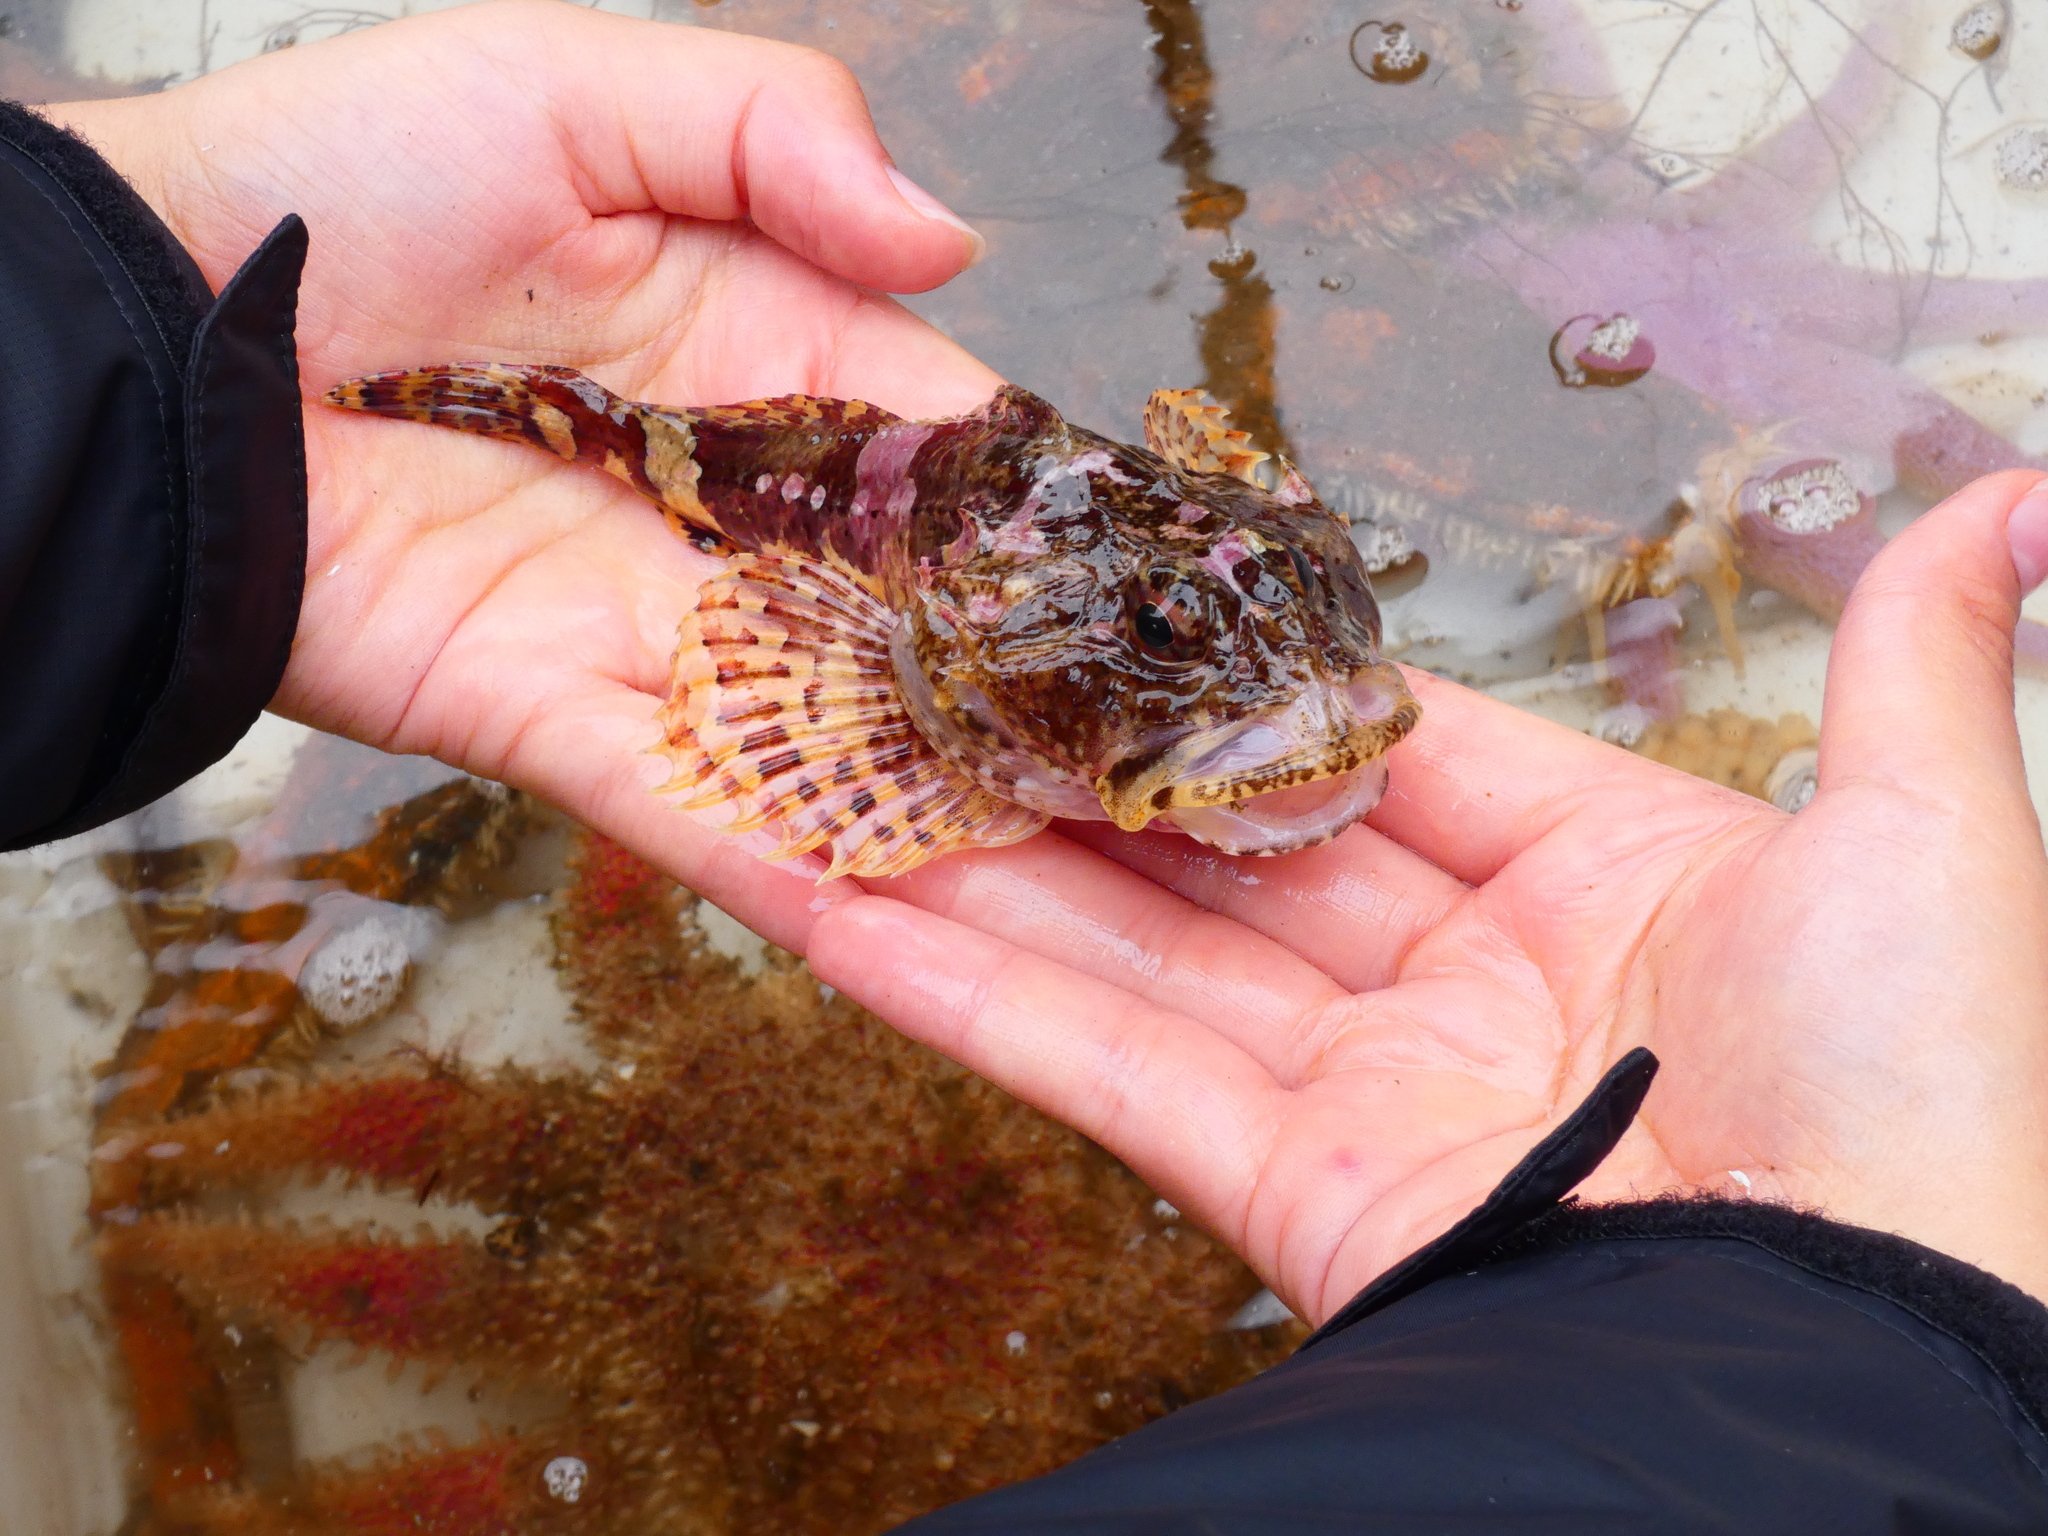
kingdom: Animalia
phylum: Chordata
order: Scorpaeniformes
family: Cottidae
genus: Myoxocephalus
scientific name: Myoxocephalus scorpius
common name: Shorthorn sculpin
